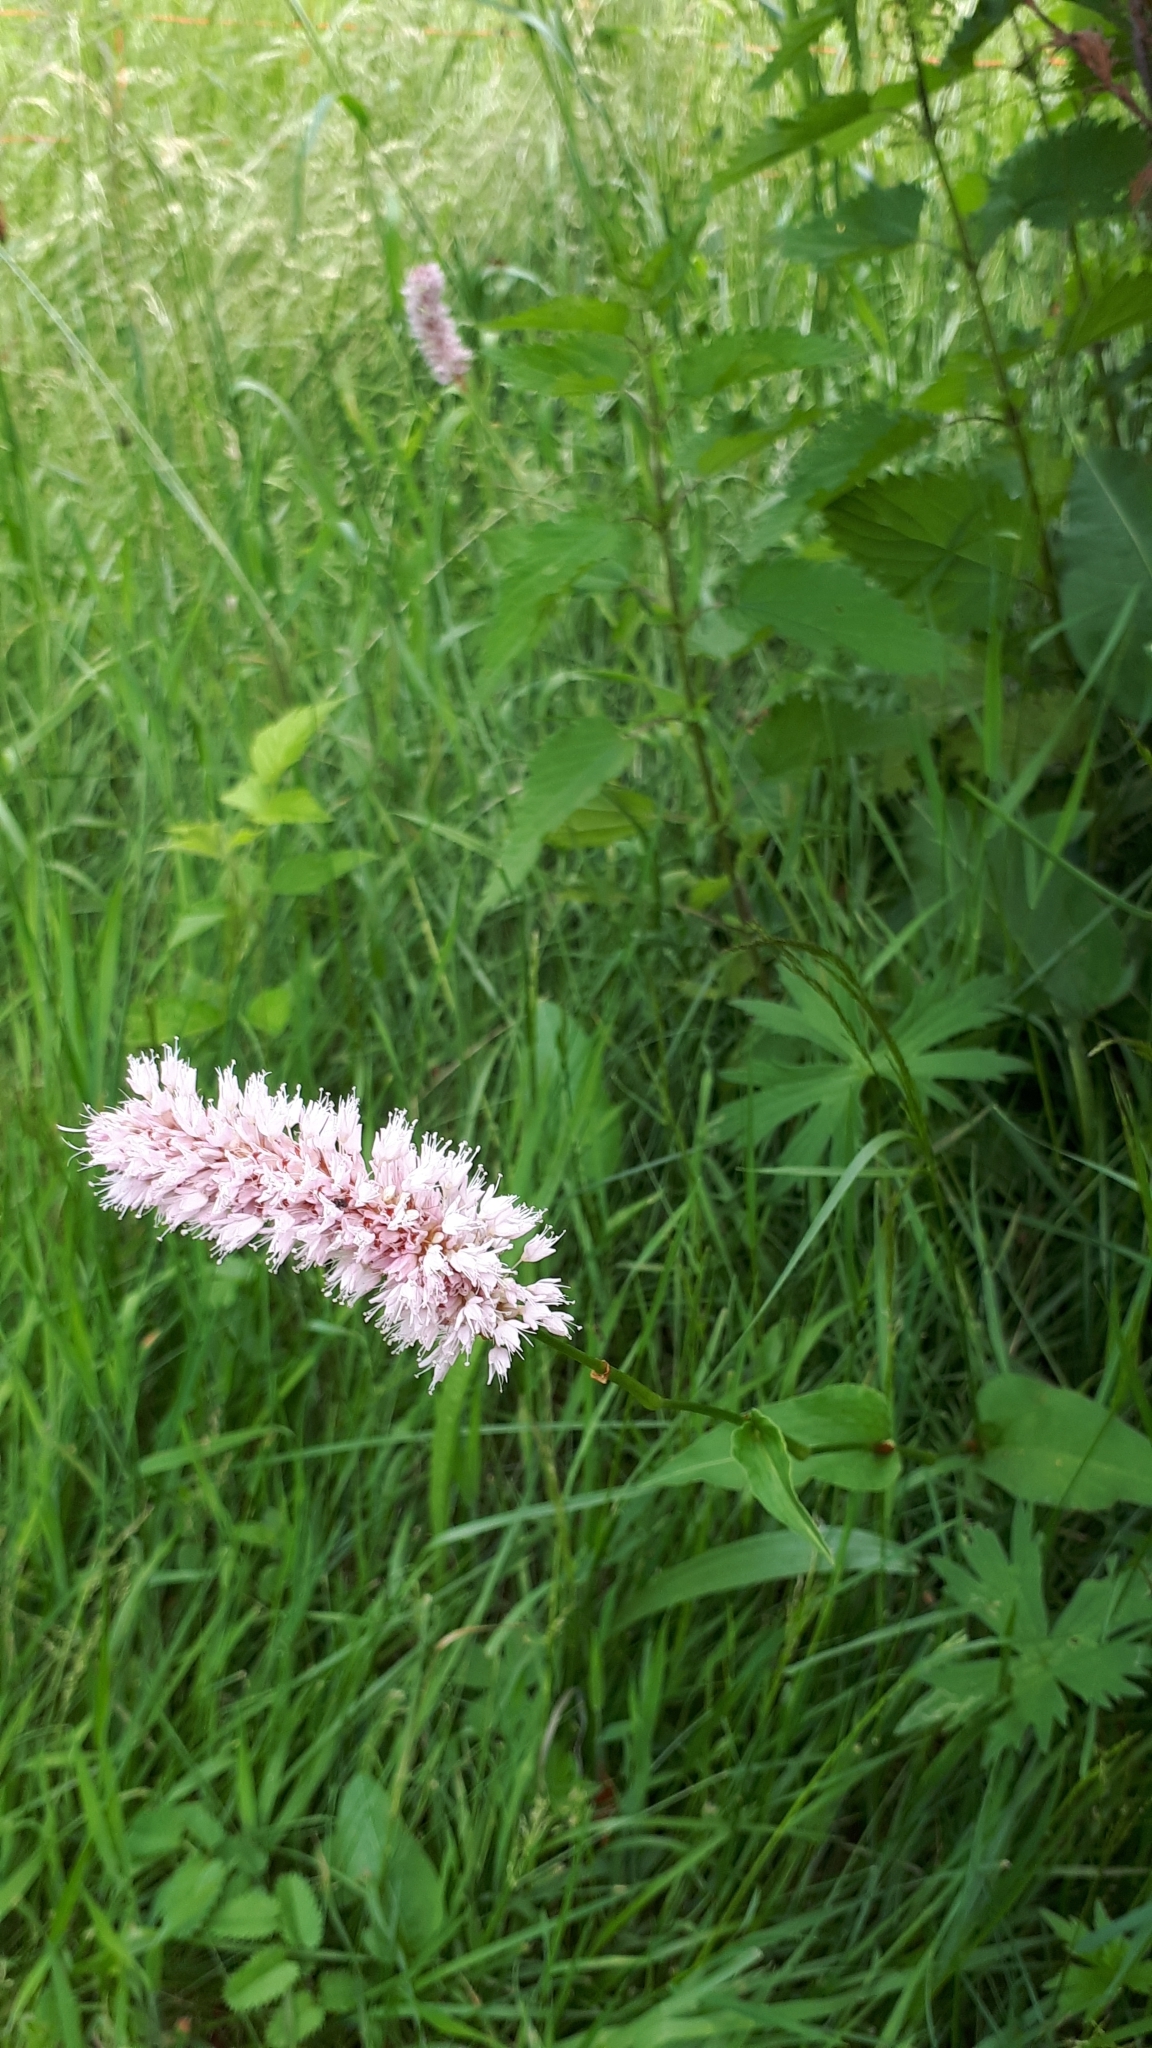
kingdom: Plantae
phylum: Tracheophyta
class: Magnoliopsida
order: Caryophyllales
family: Polygonaceae
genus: Bistorta
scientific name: Bistorta officinalis
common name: Common bistort
